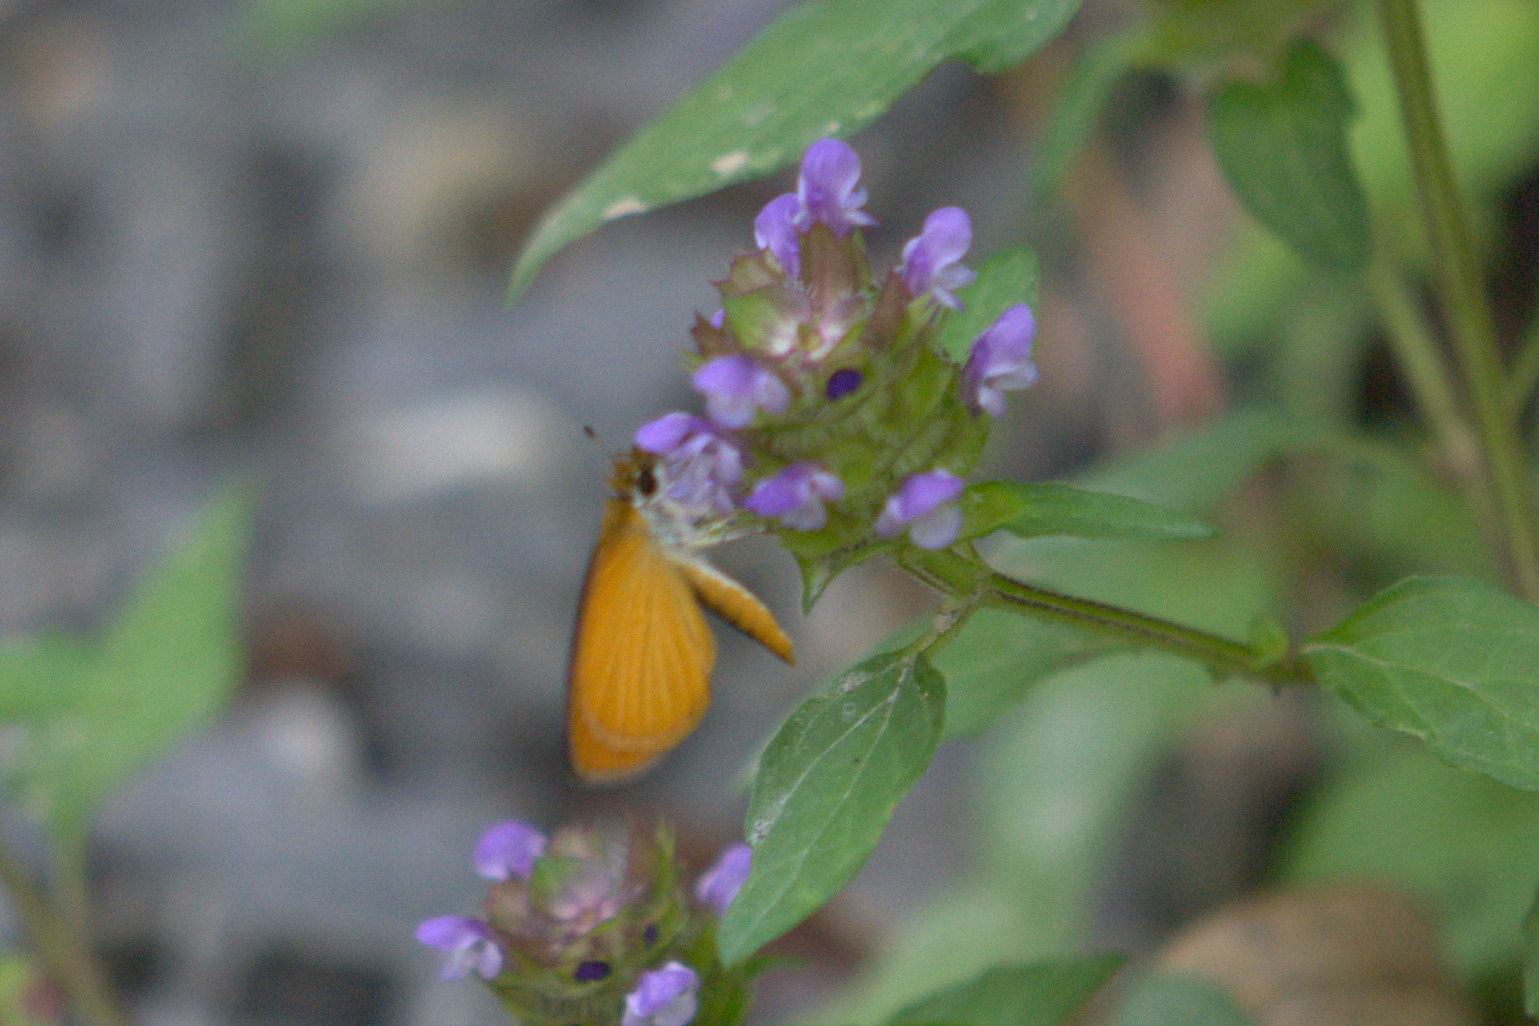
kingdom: Animalia
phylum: Arthropoda
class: Insecta
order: Lepidoptera
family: Hesperiidae
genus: Ancyloxypha
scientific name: Ancyloxypha numitor
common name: Least skipper
